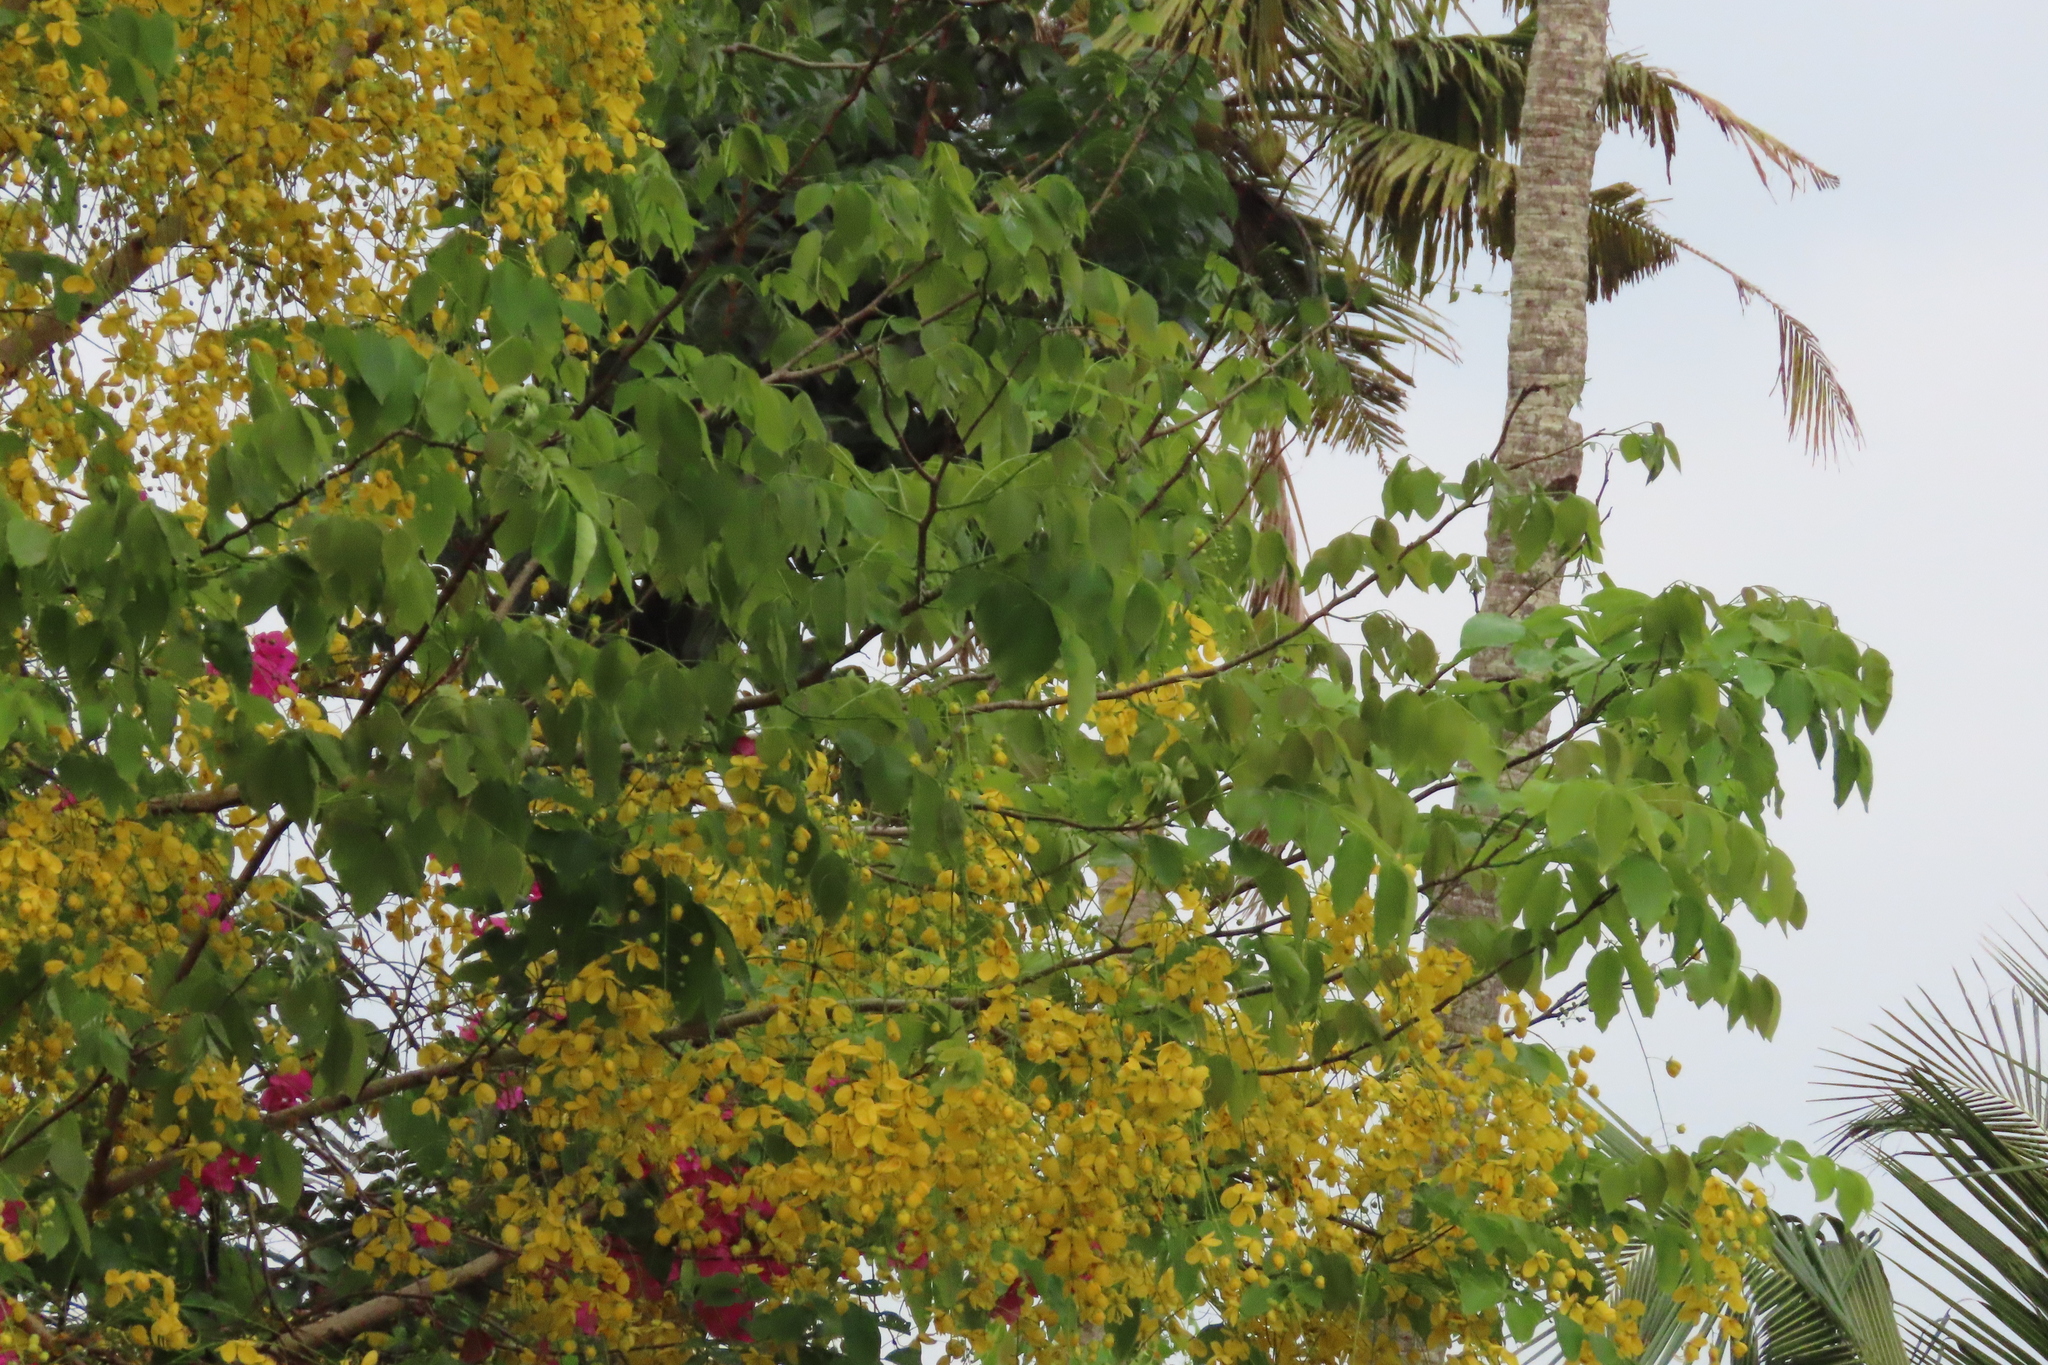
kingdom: Plantae
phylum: Tracheophyta
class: Magnoliopsida
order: Fabales
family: Fabaceae
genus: Cassia
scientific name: Cassia fistula
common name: Golden shower
